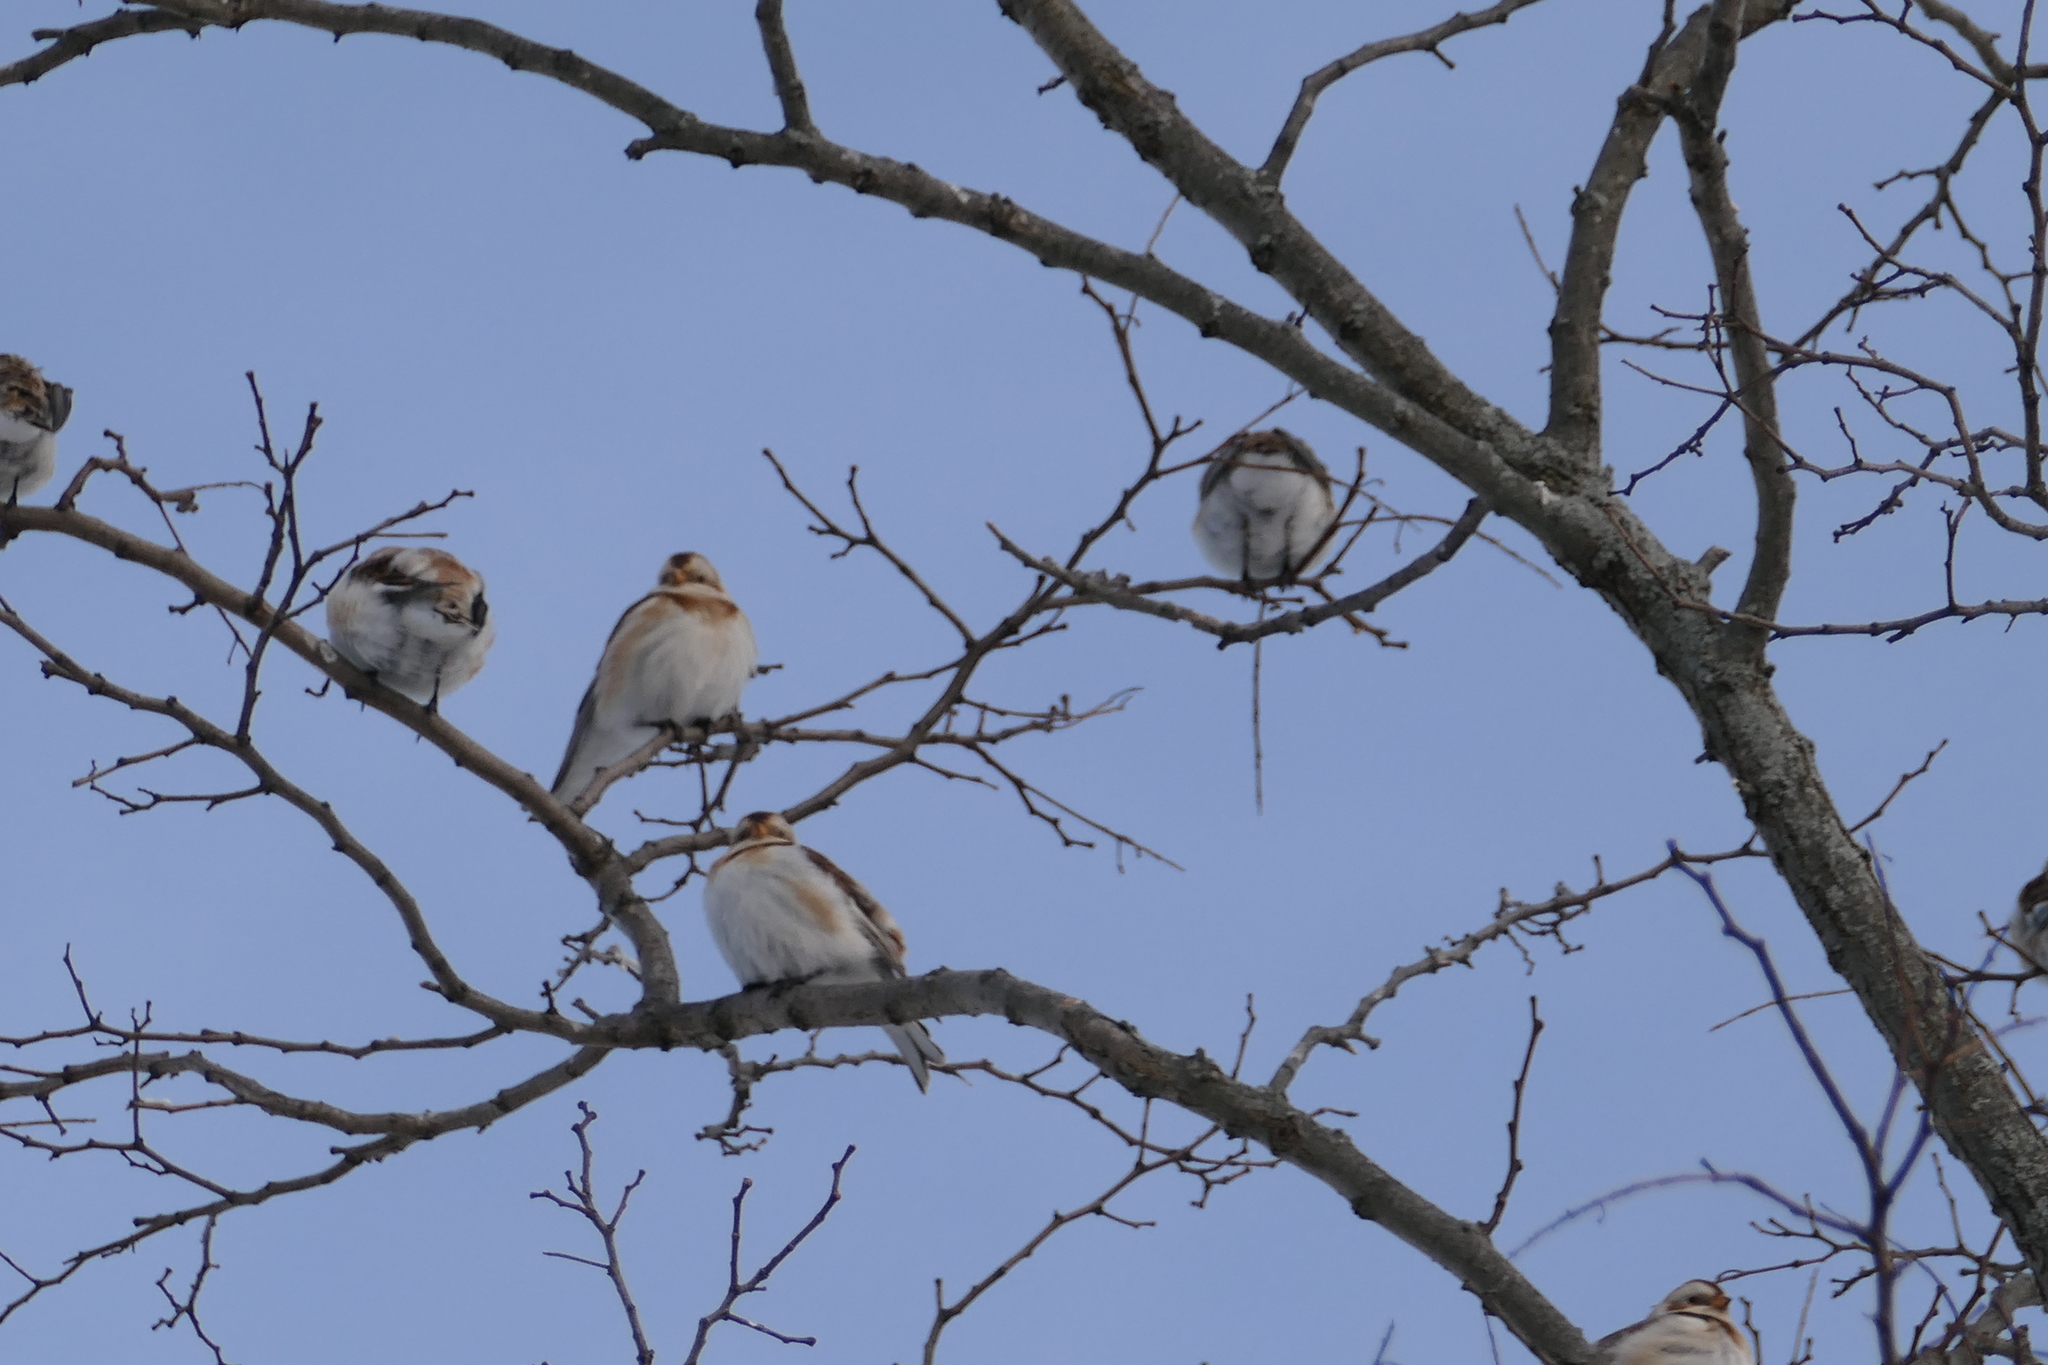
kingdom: Animalia
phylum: Chordata
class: Aves
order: Passeriformes
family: Calcariidae
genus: Plectrophenax
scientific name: Plectrophenax nivalis
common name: Snow bunting
